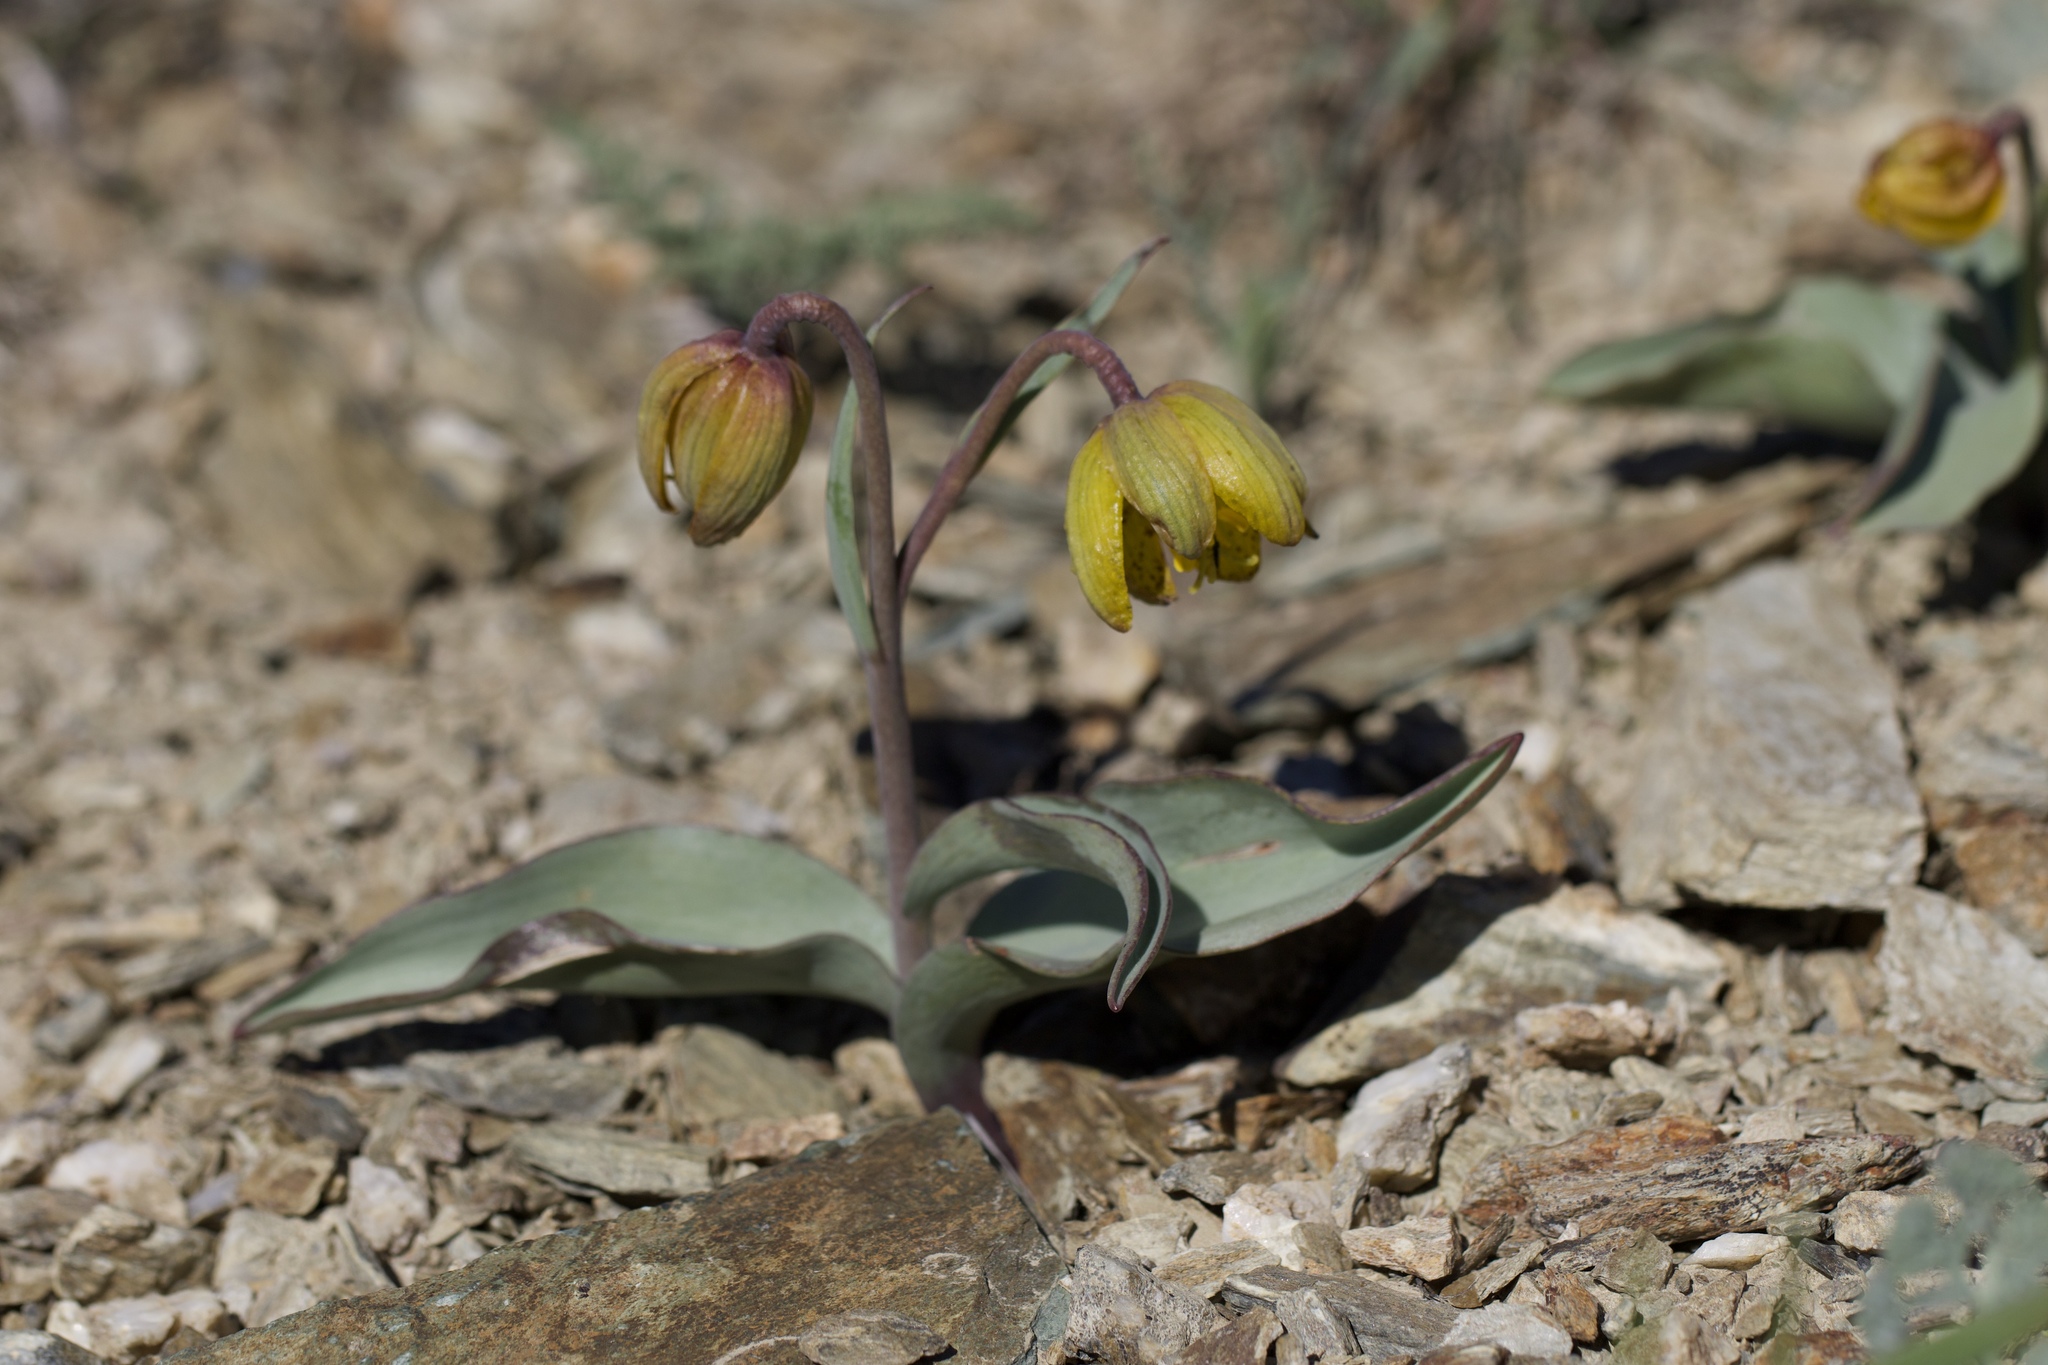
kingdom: Plantae
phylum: Tracheophyta
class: Liliopsida
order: Liliales
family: Liliaceae
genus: Fritillaria
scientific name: Fritillaria glauca
